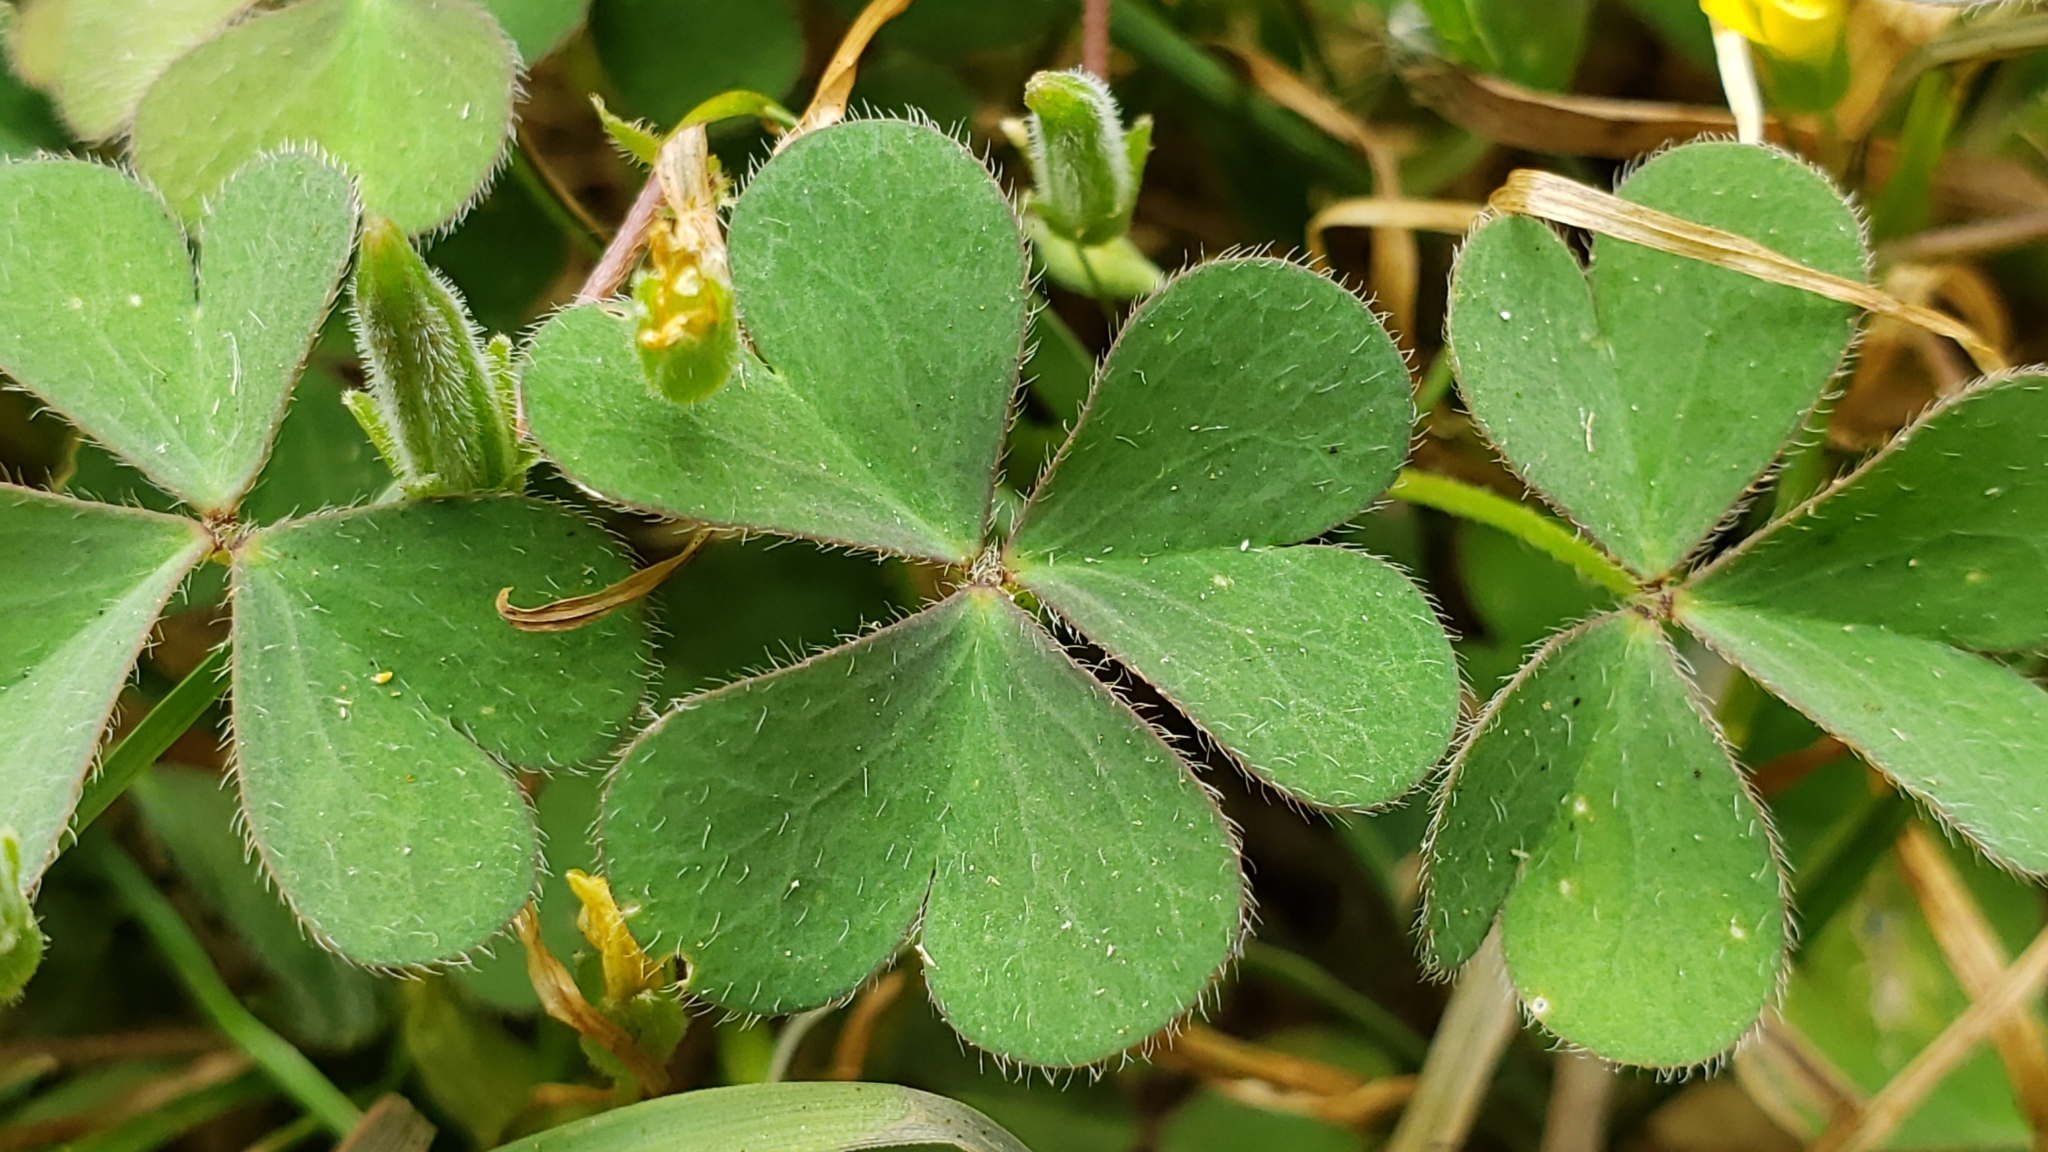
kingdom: Plantae
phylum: Tracheophyta
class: Magnoliopsida
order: Oxalidales
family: Oxalidaceae
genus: Oxalis
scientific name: Oxalis corniculata
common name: Procumbent yellow-sorrel
